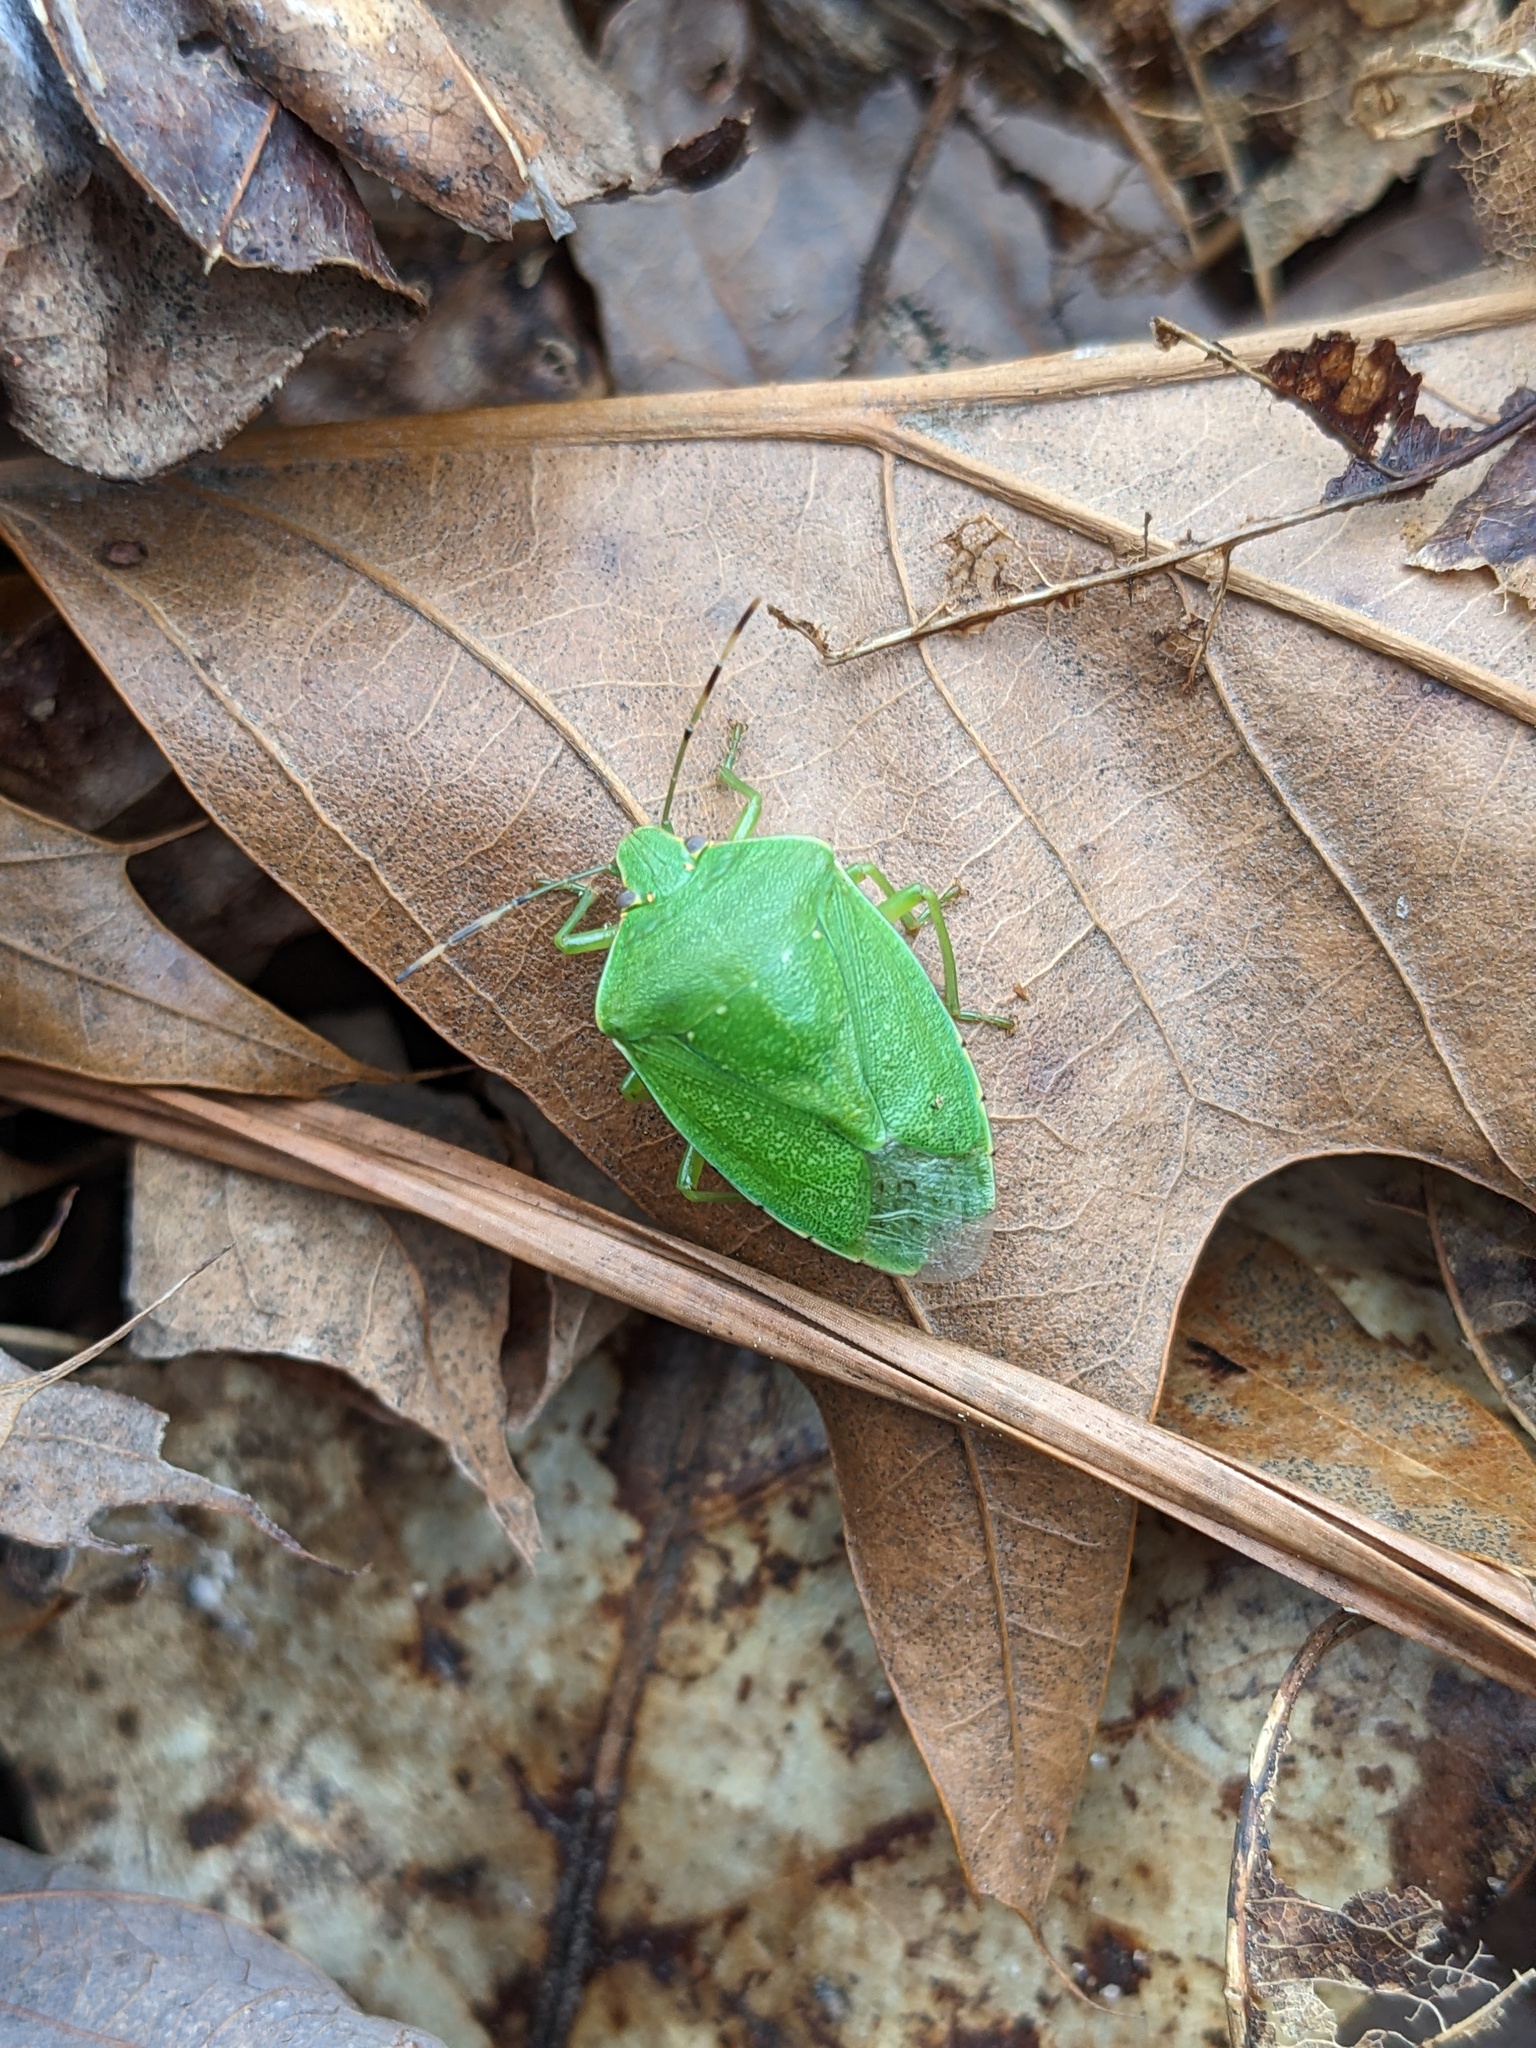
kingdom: Animalia
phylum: Arthropoda
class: Insecta
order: Hemiptera
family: Pentatomidae
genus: Chinavia
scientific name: Chinavia hilaris
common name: Green stink bug
